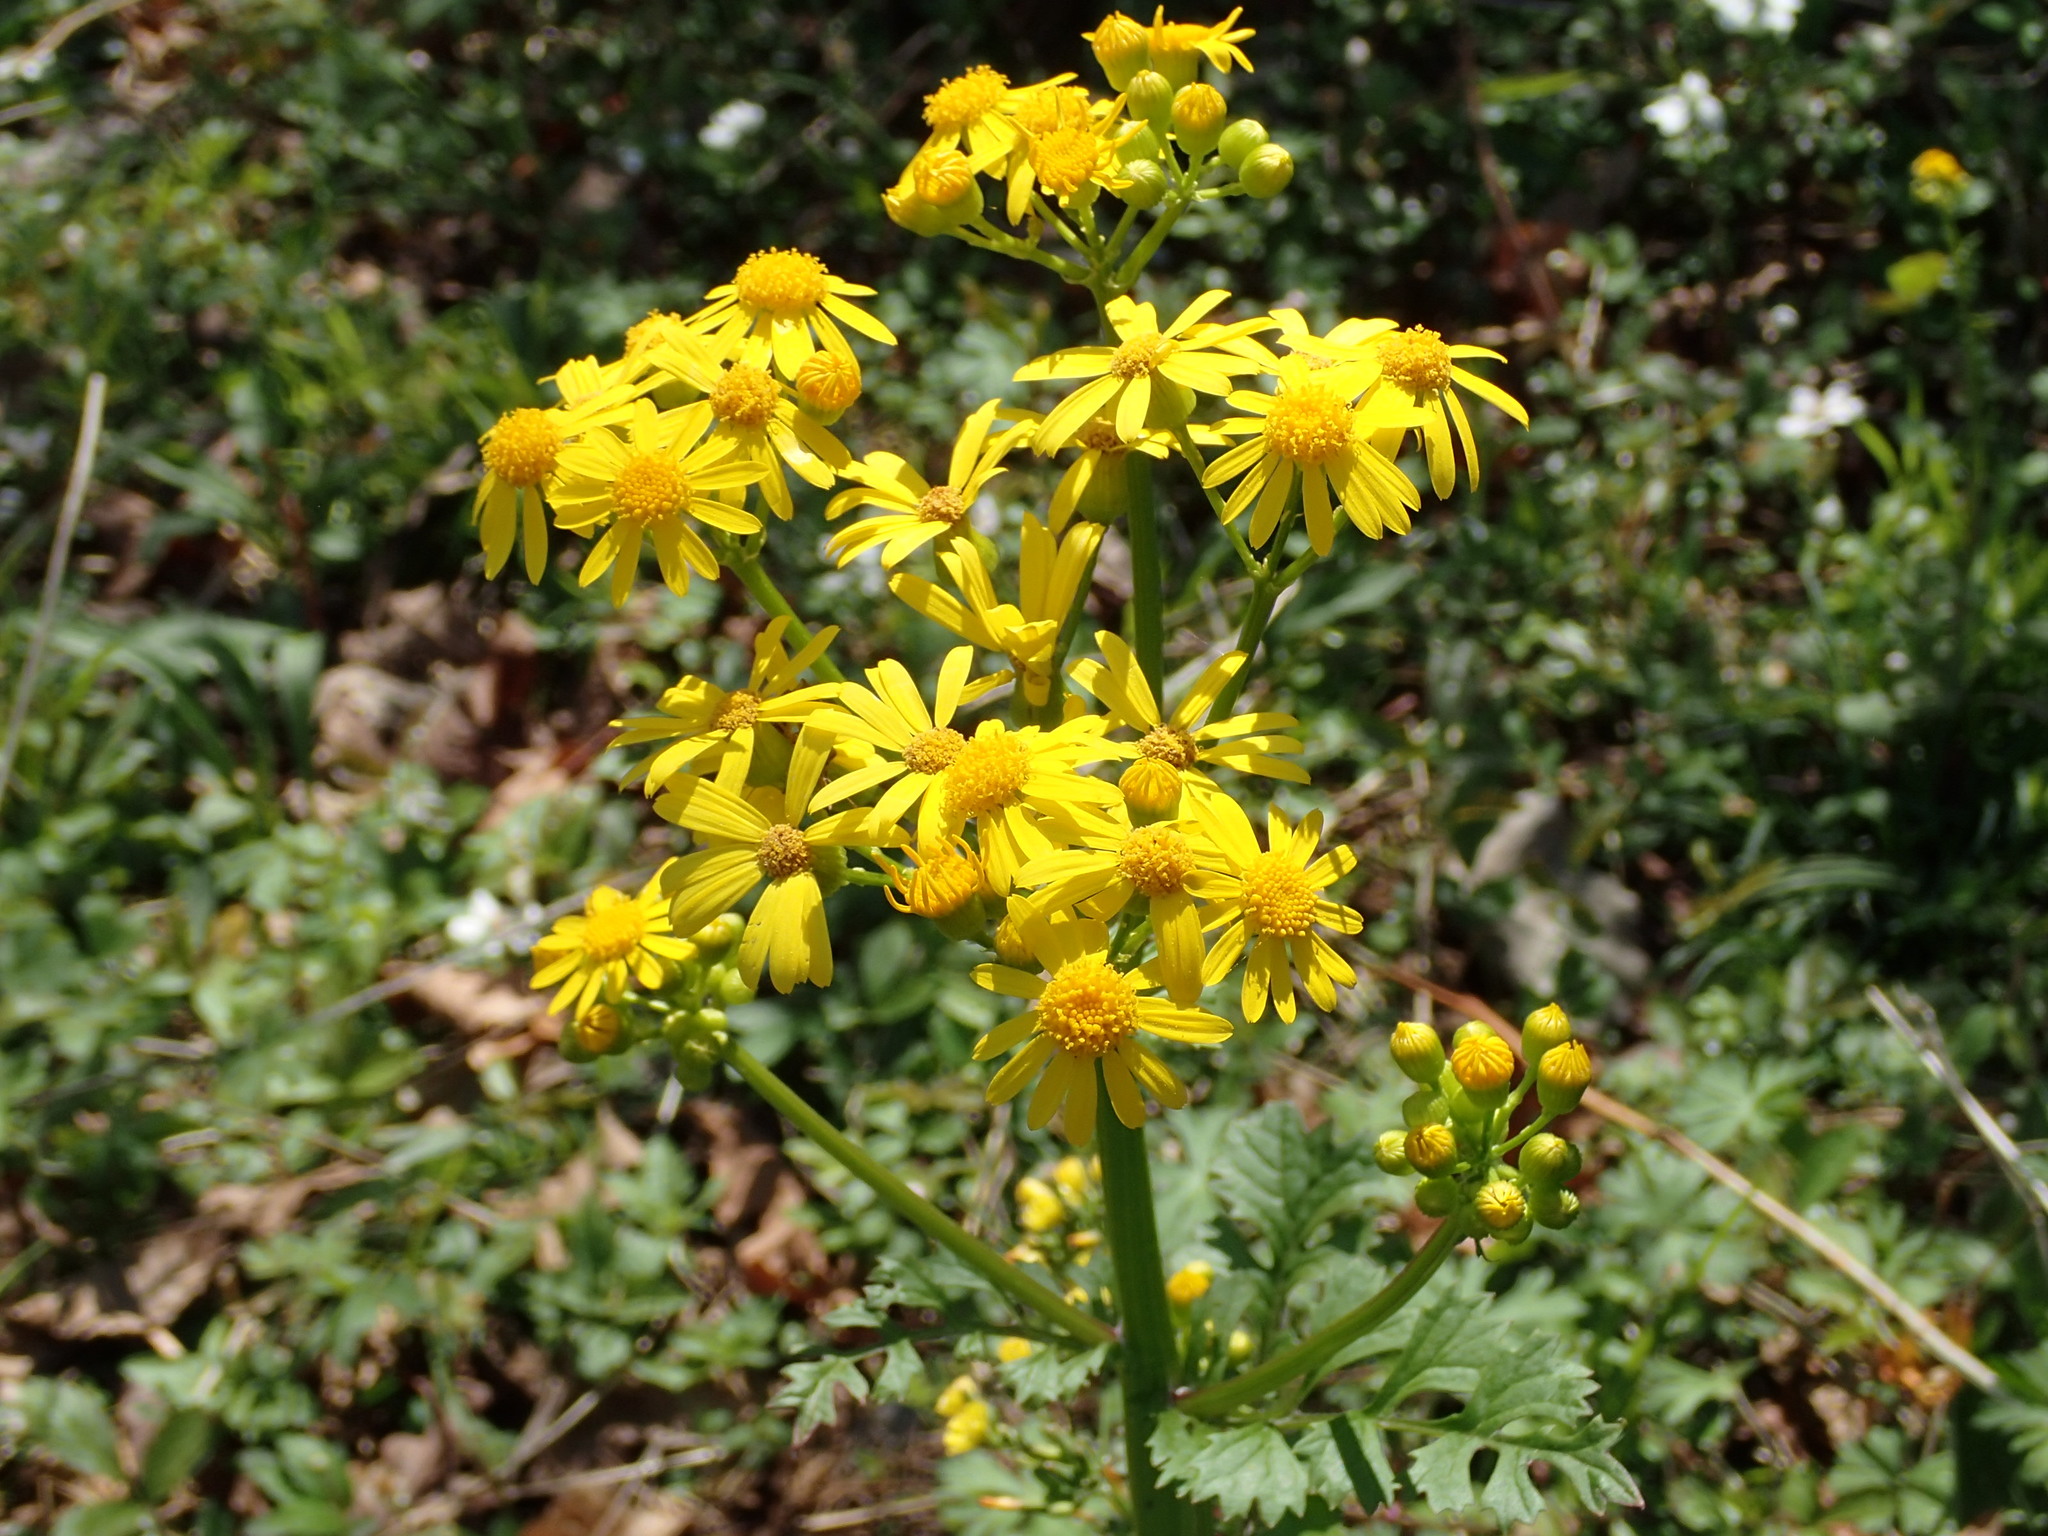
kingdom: Plantae
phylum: Tracheophyta
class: Magnoliopsida
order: Asterales
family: Asteraceae
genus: Packera
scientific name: Packera glabella
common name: Butterweed
